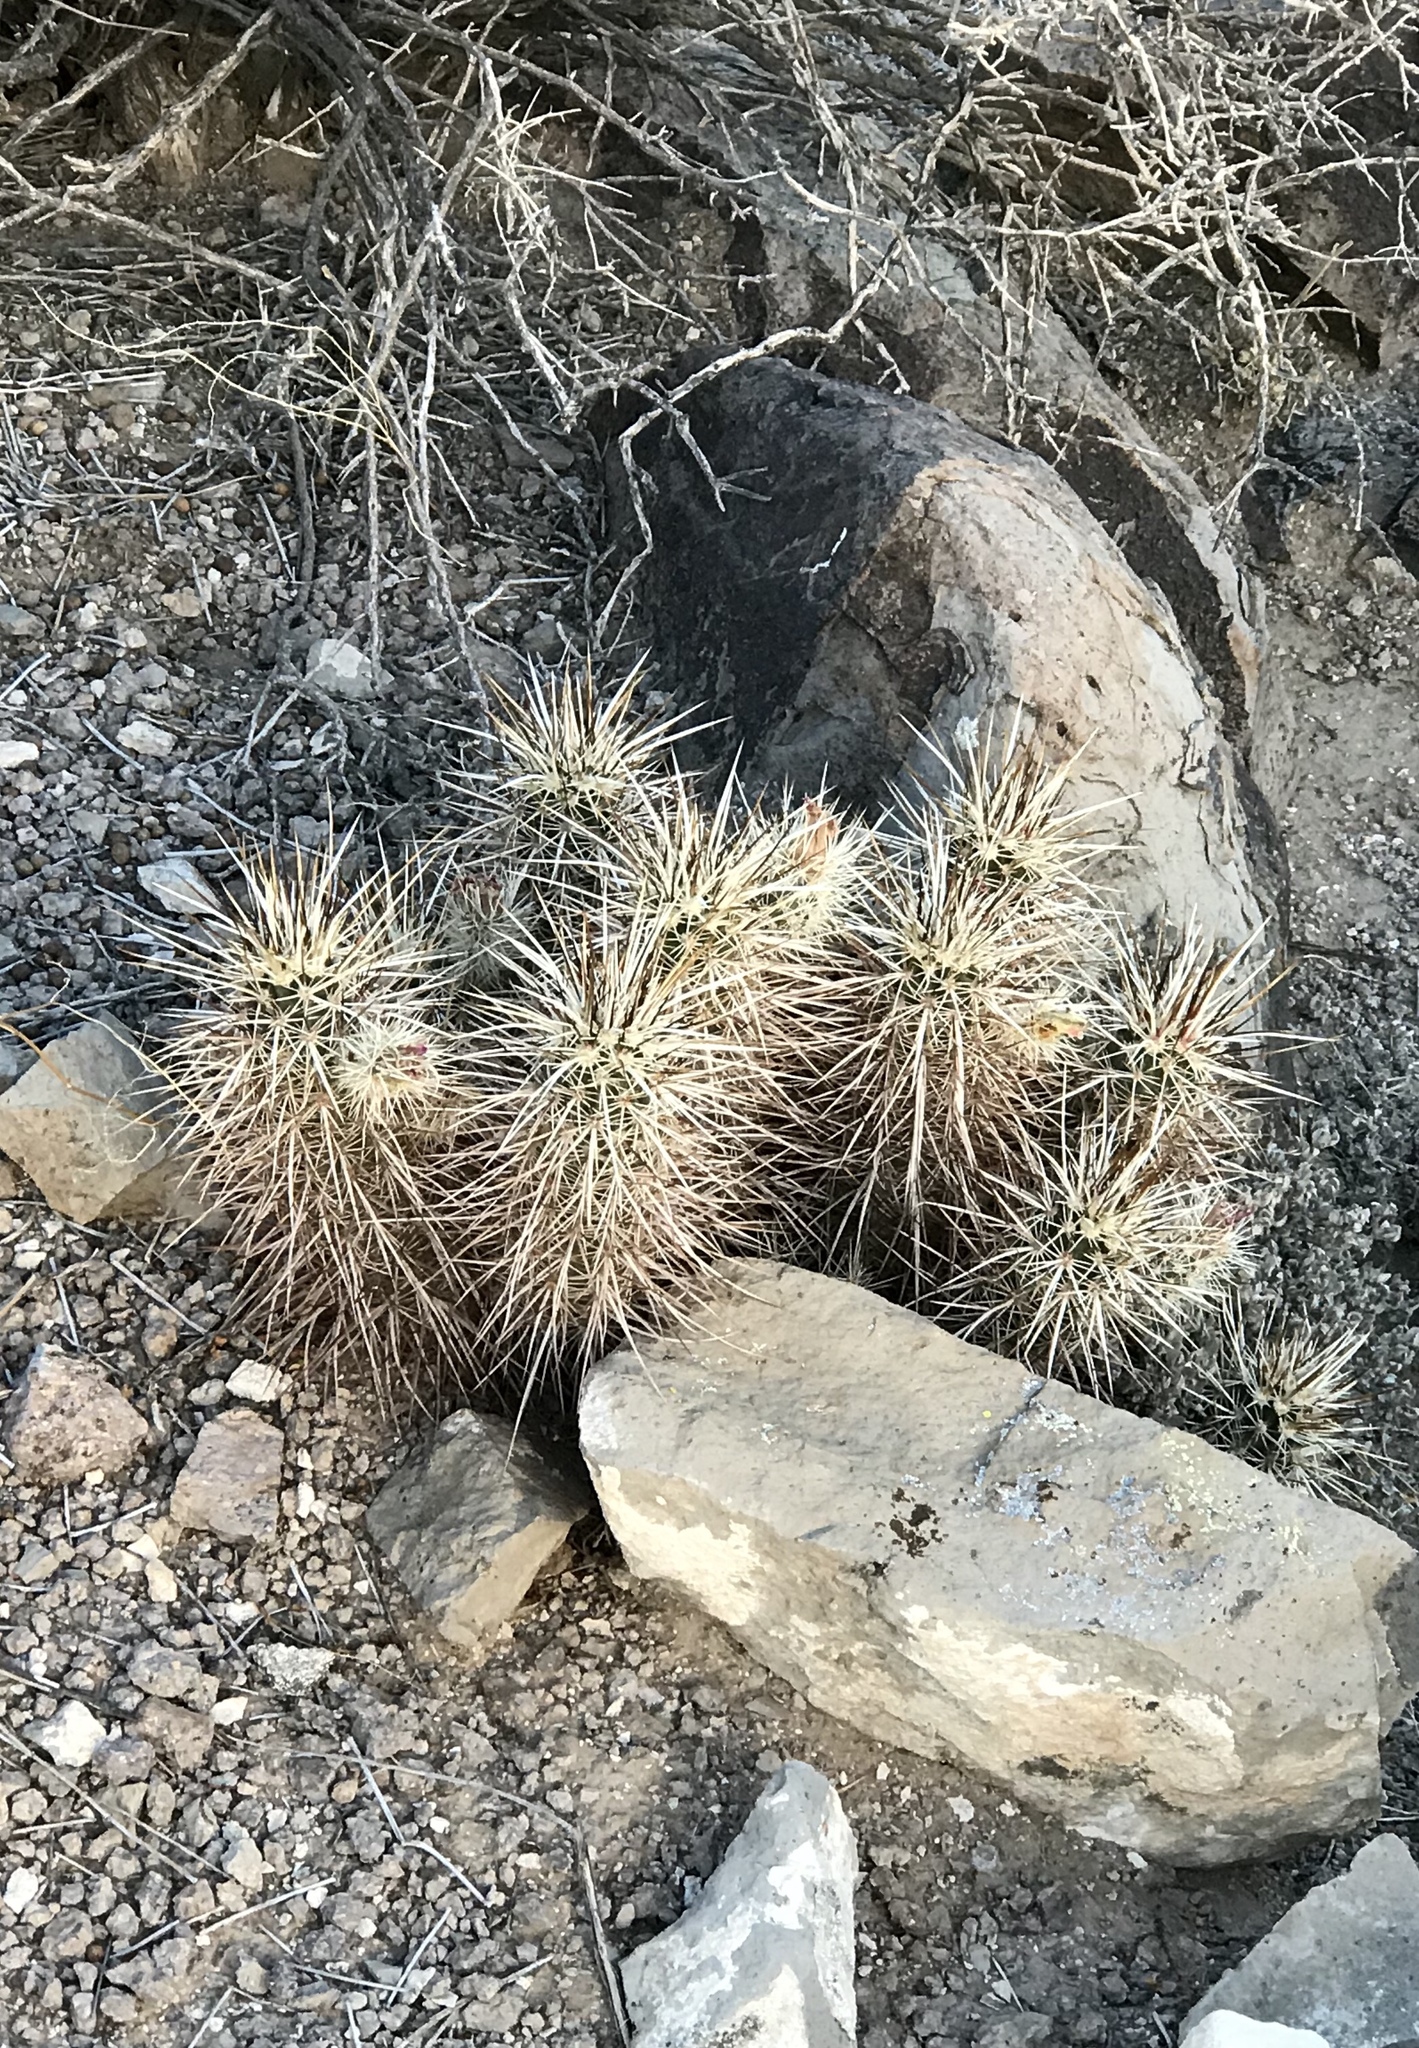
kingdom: Plantae
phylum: Tracheophyta
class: Magnoliopsida
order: Caryophyllales
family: Cactaceae
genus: Echinocereus
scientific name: Echinocereus engelmannii
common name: Engelmann's hedgehog cactus
